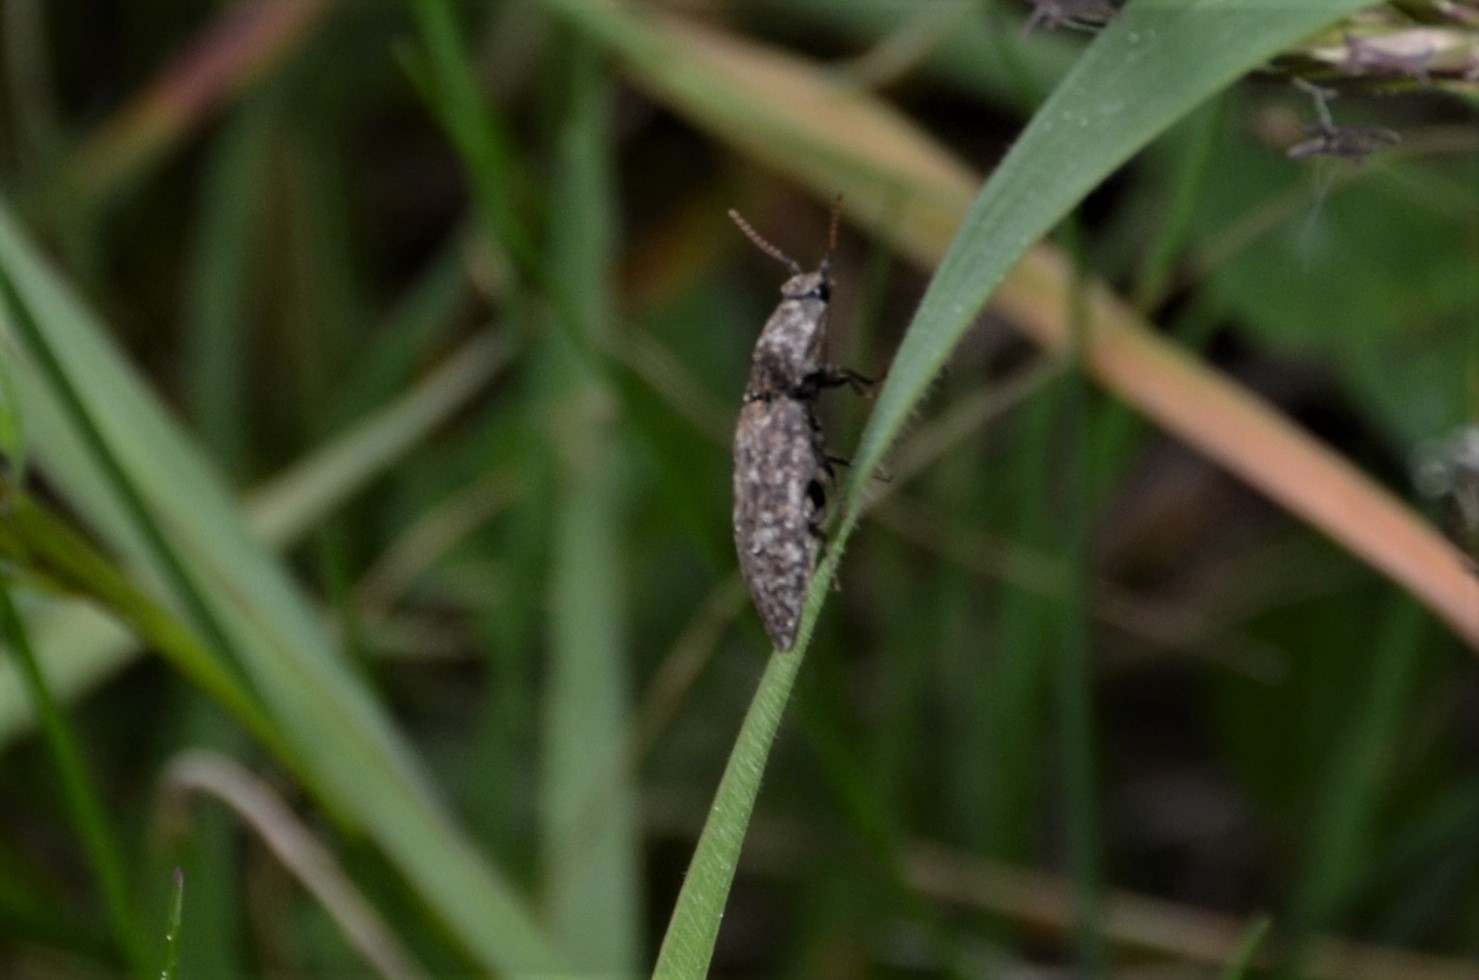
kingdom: Animalia
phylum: Arthropoda
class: Insecta
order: Coleoptera
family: Elateridae
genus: Agrypnus
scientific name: Agrypnus murinus
